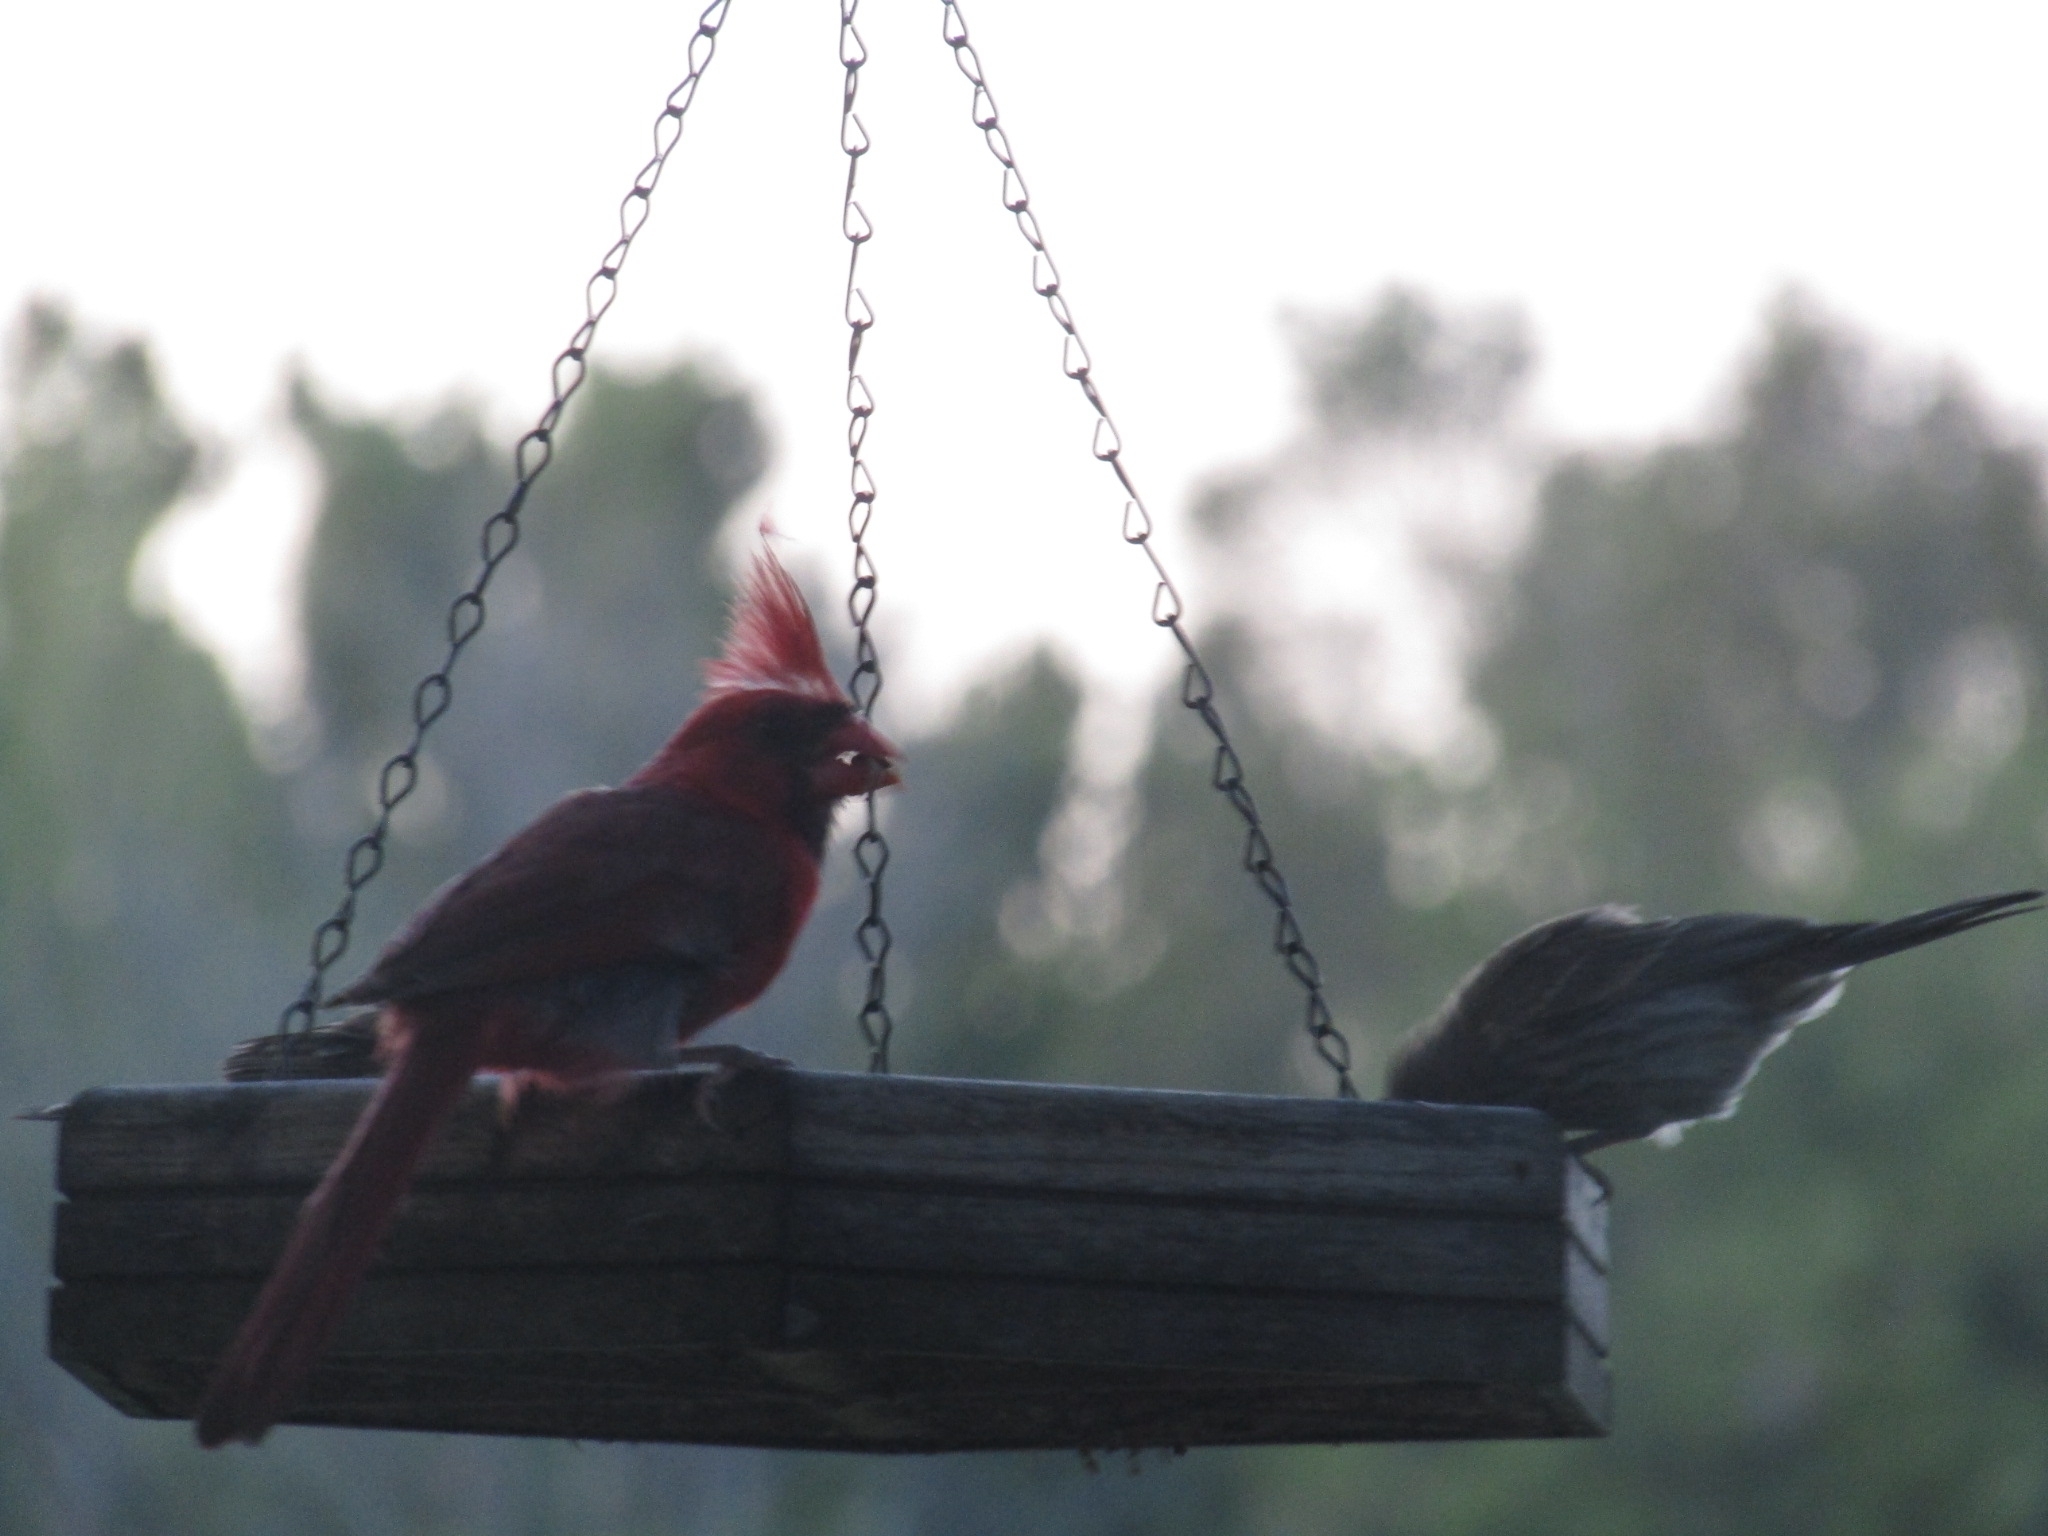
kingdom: Animalia
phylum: Chordata
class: Aves
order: Passeriformes
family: Cardinalidae
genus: Cardinalis
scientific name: Cardinalis cardinalis
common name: Northern cardinal
